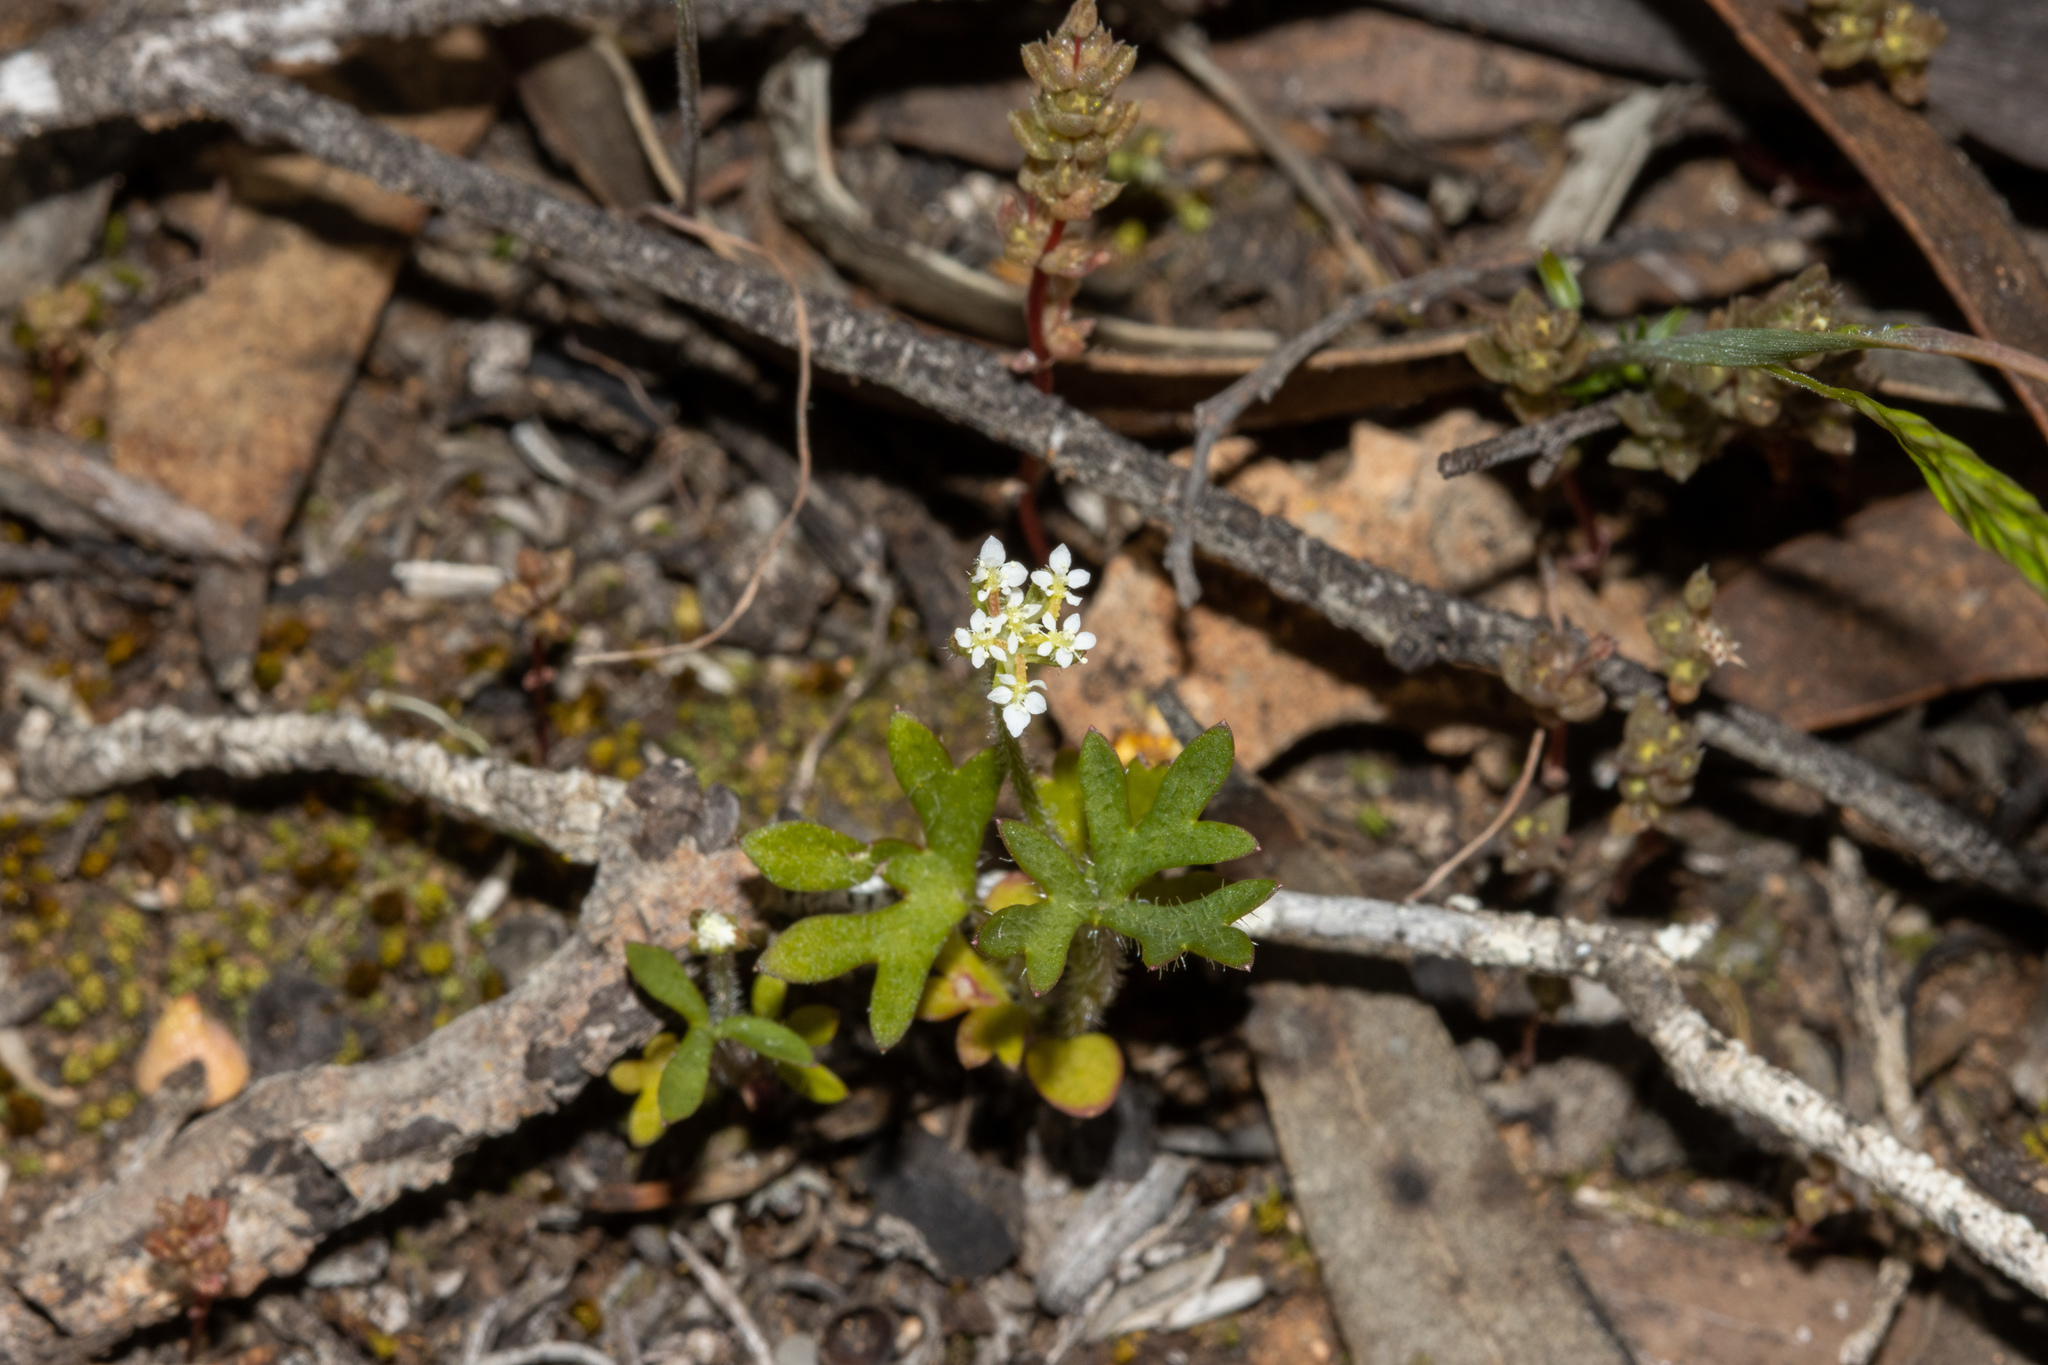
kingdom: Plantae
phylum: Tracheophyta
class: Magnoliopsida
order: Apiales
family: Araliaceae
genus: Trachymene
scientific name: Trachymene pilosa
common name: Dwarf trachymene
